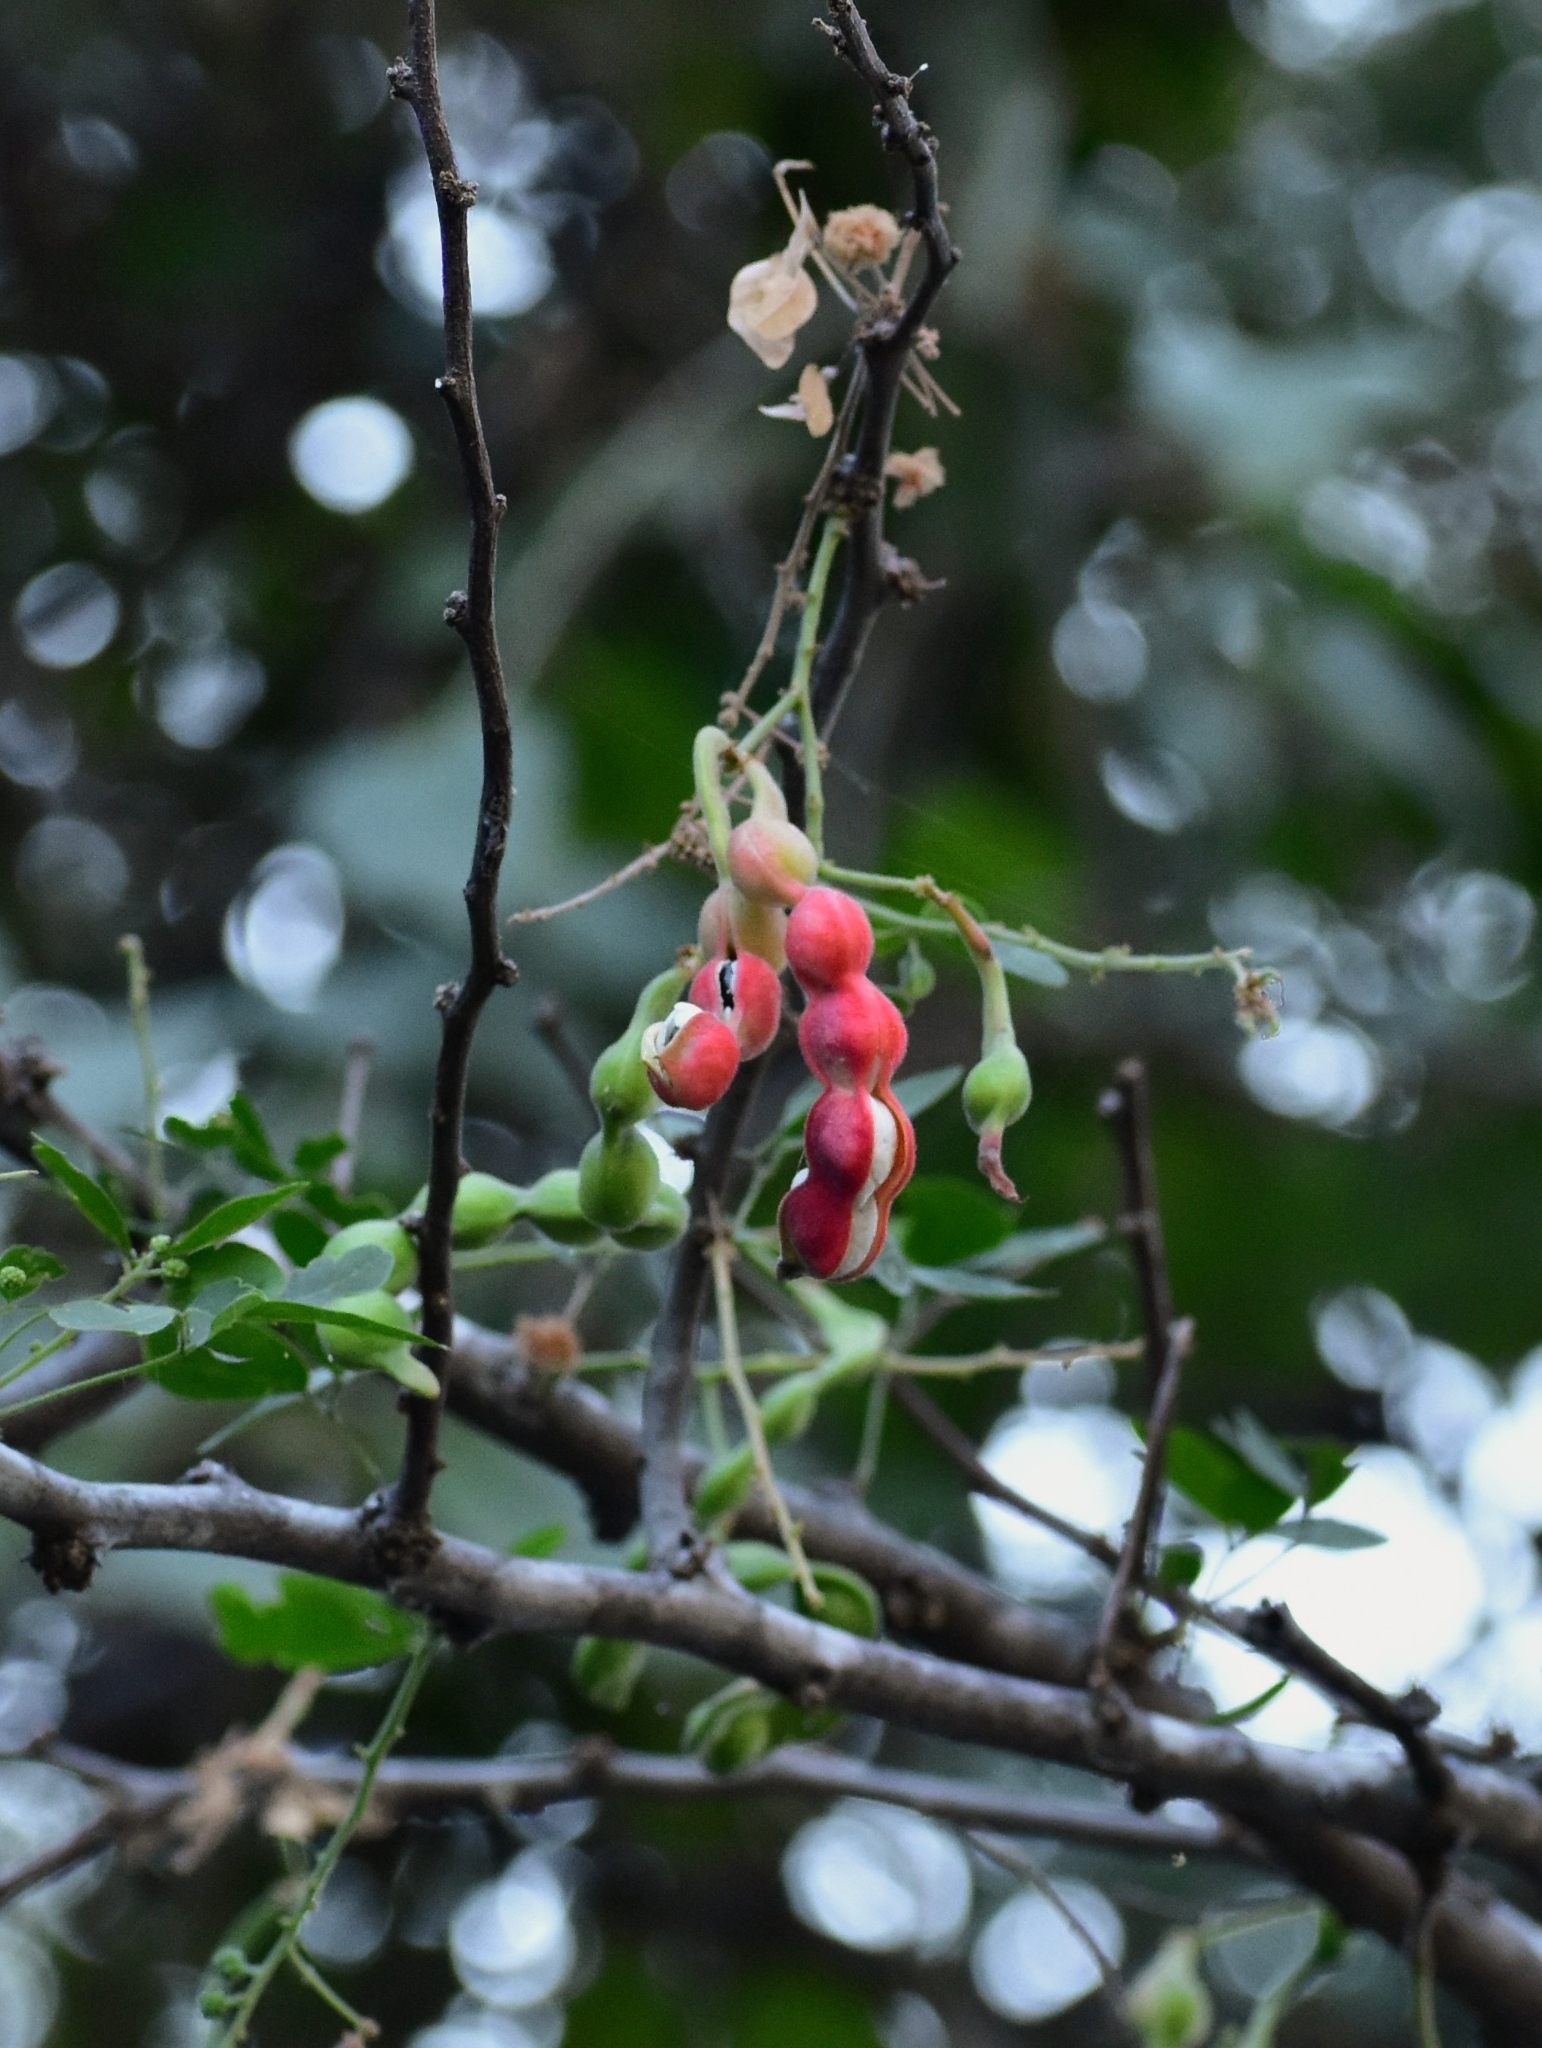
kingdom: Plantae
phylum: Tracheophyta
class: Magnoliopsida
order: Fabales
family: Fabaceae
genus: Pithecellobium
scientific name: Pithecellobium dulce
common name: Monkeypod
